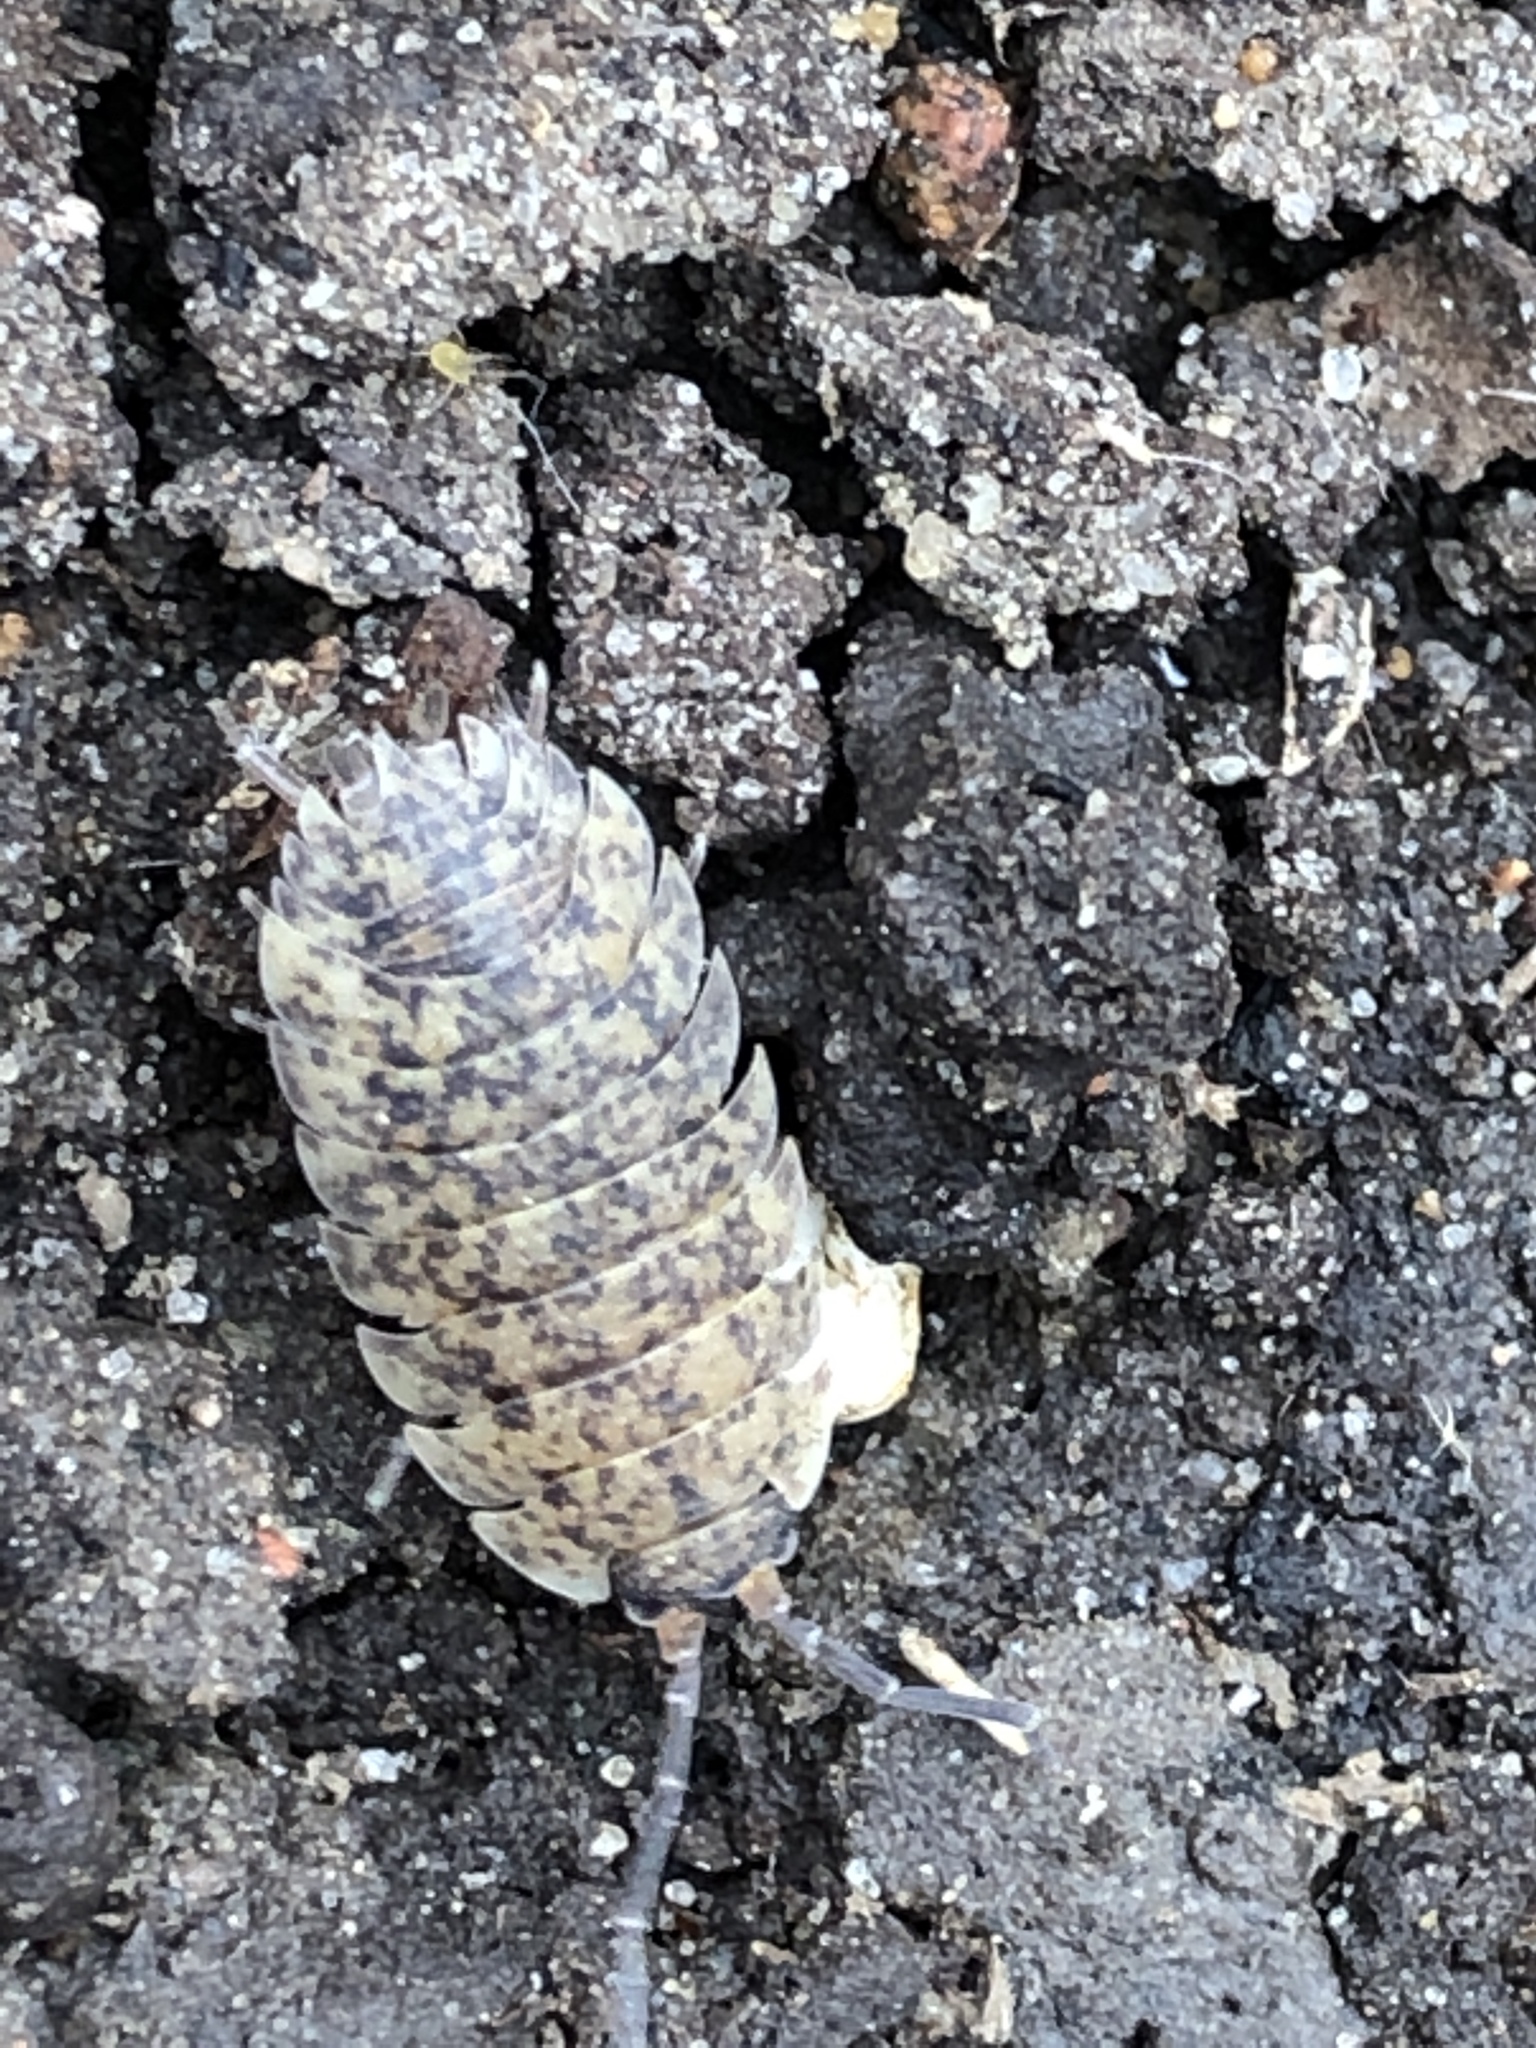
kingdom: Animalia
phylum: Arthropoda
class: Malacostraca
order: Isopoda
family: Porcellionidae
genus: Porcellio
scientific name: Porcellio scaber
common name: Common rough woodlouse
